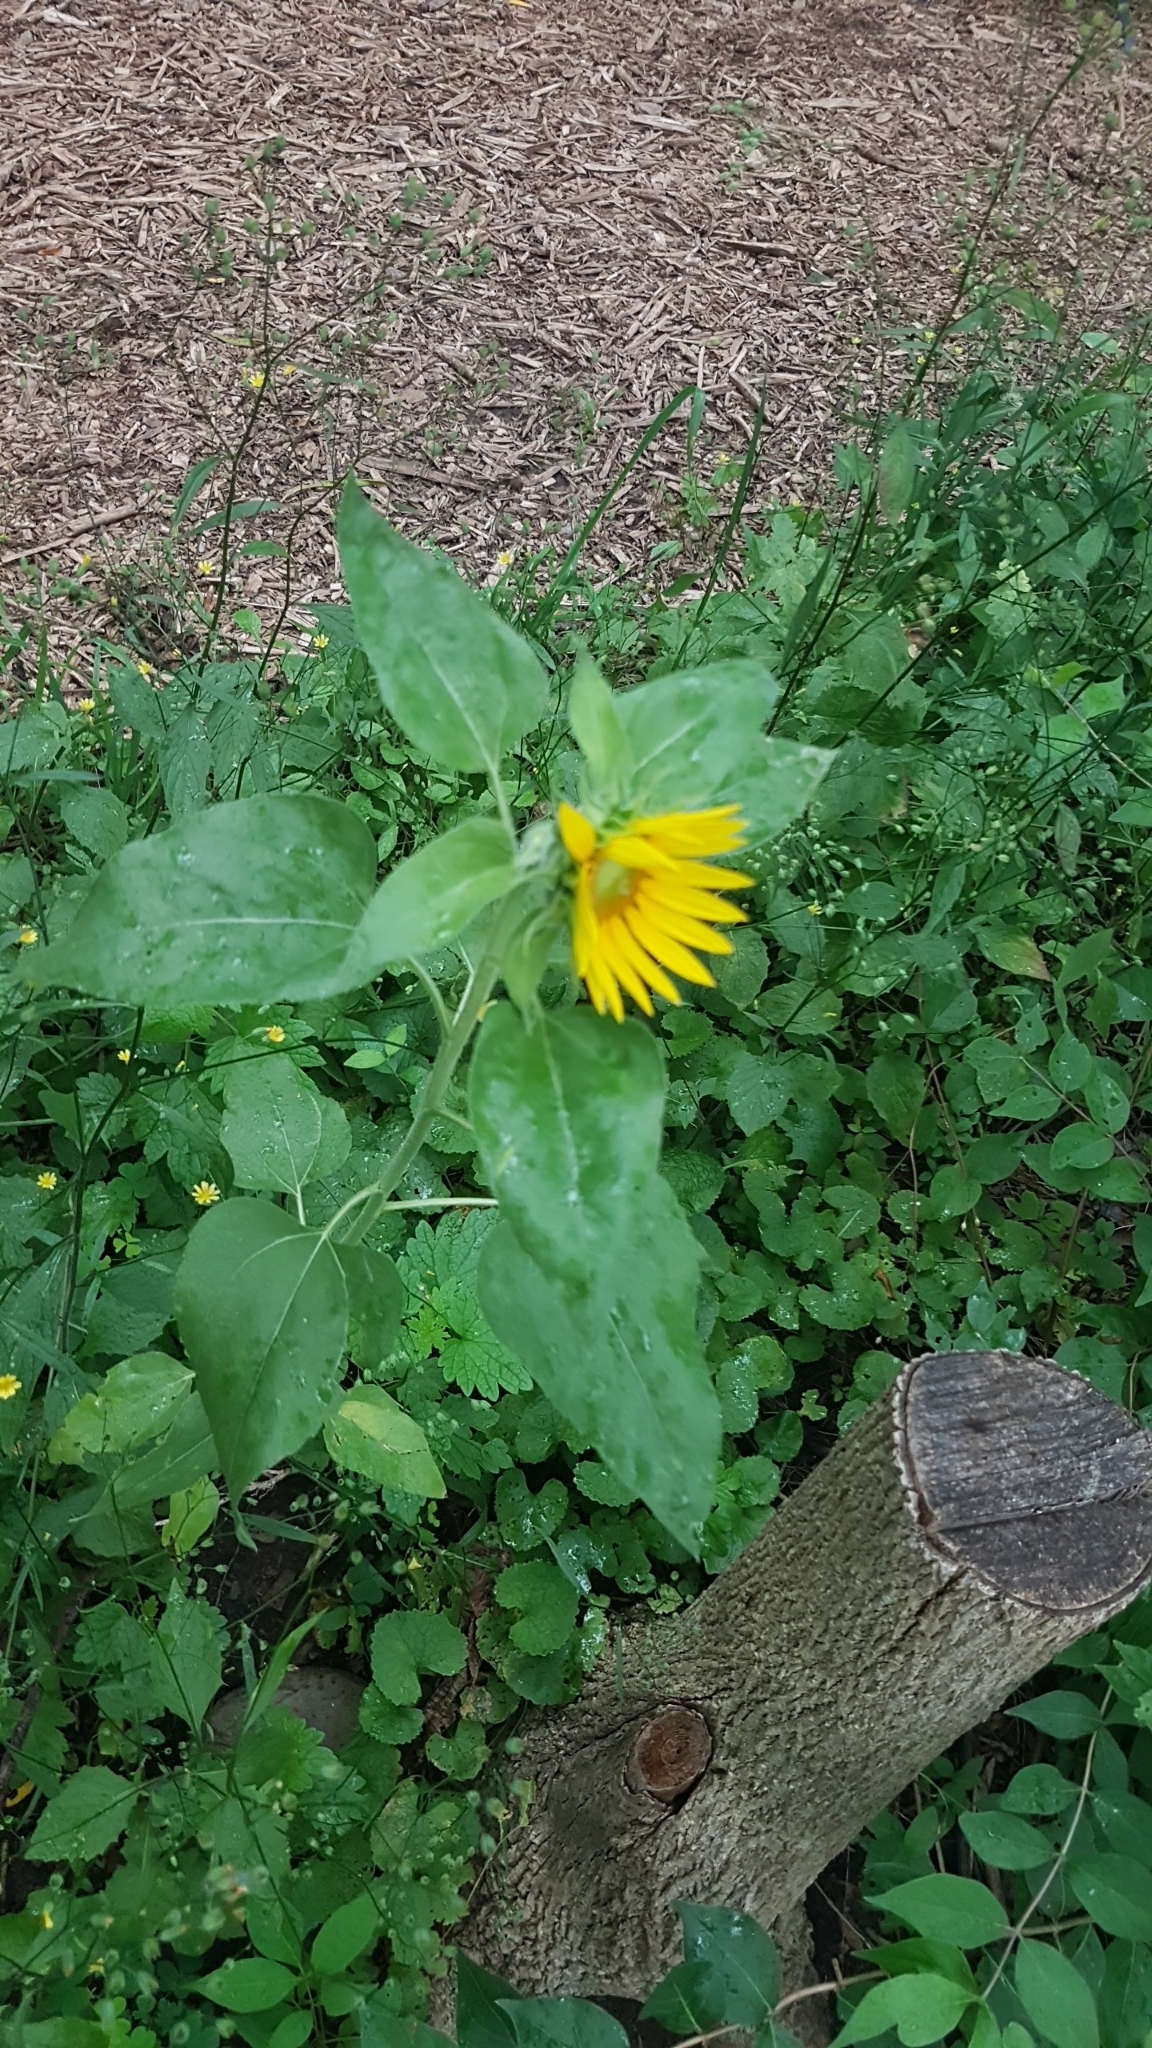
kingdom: Plantae
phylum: Tracheophyta
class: Magnoliopsida
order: Asterales
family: Asteraceae
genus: Helianthus
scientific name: Helianthus annuus
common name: Sunflower
